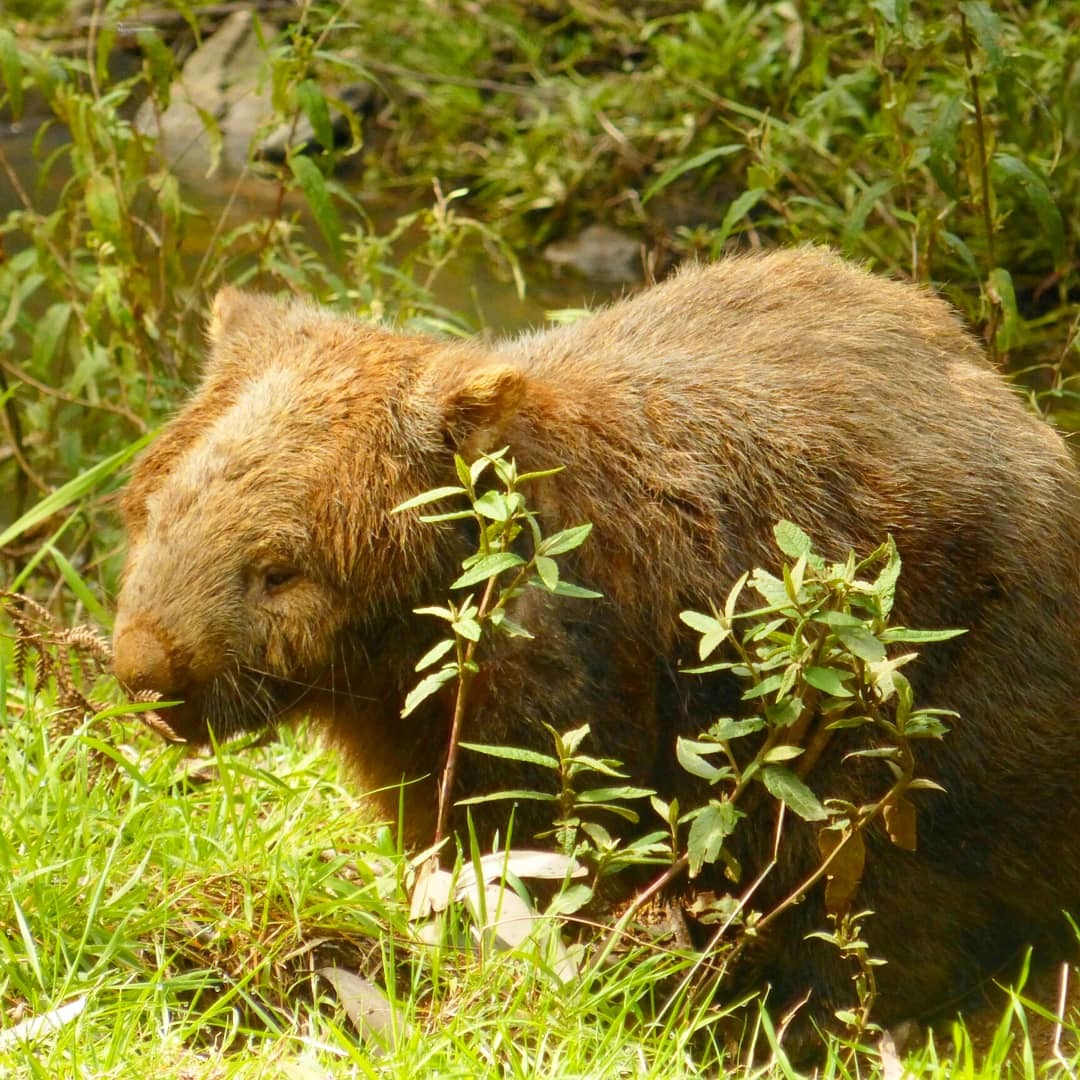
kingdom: Animalia
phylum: Chordata
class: Mammalia
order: Diprotodontia
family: Vombatidae
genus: Vombatus
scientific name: Vombatus ursinus
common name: Common wombat
